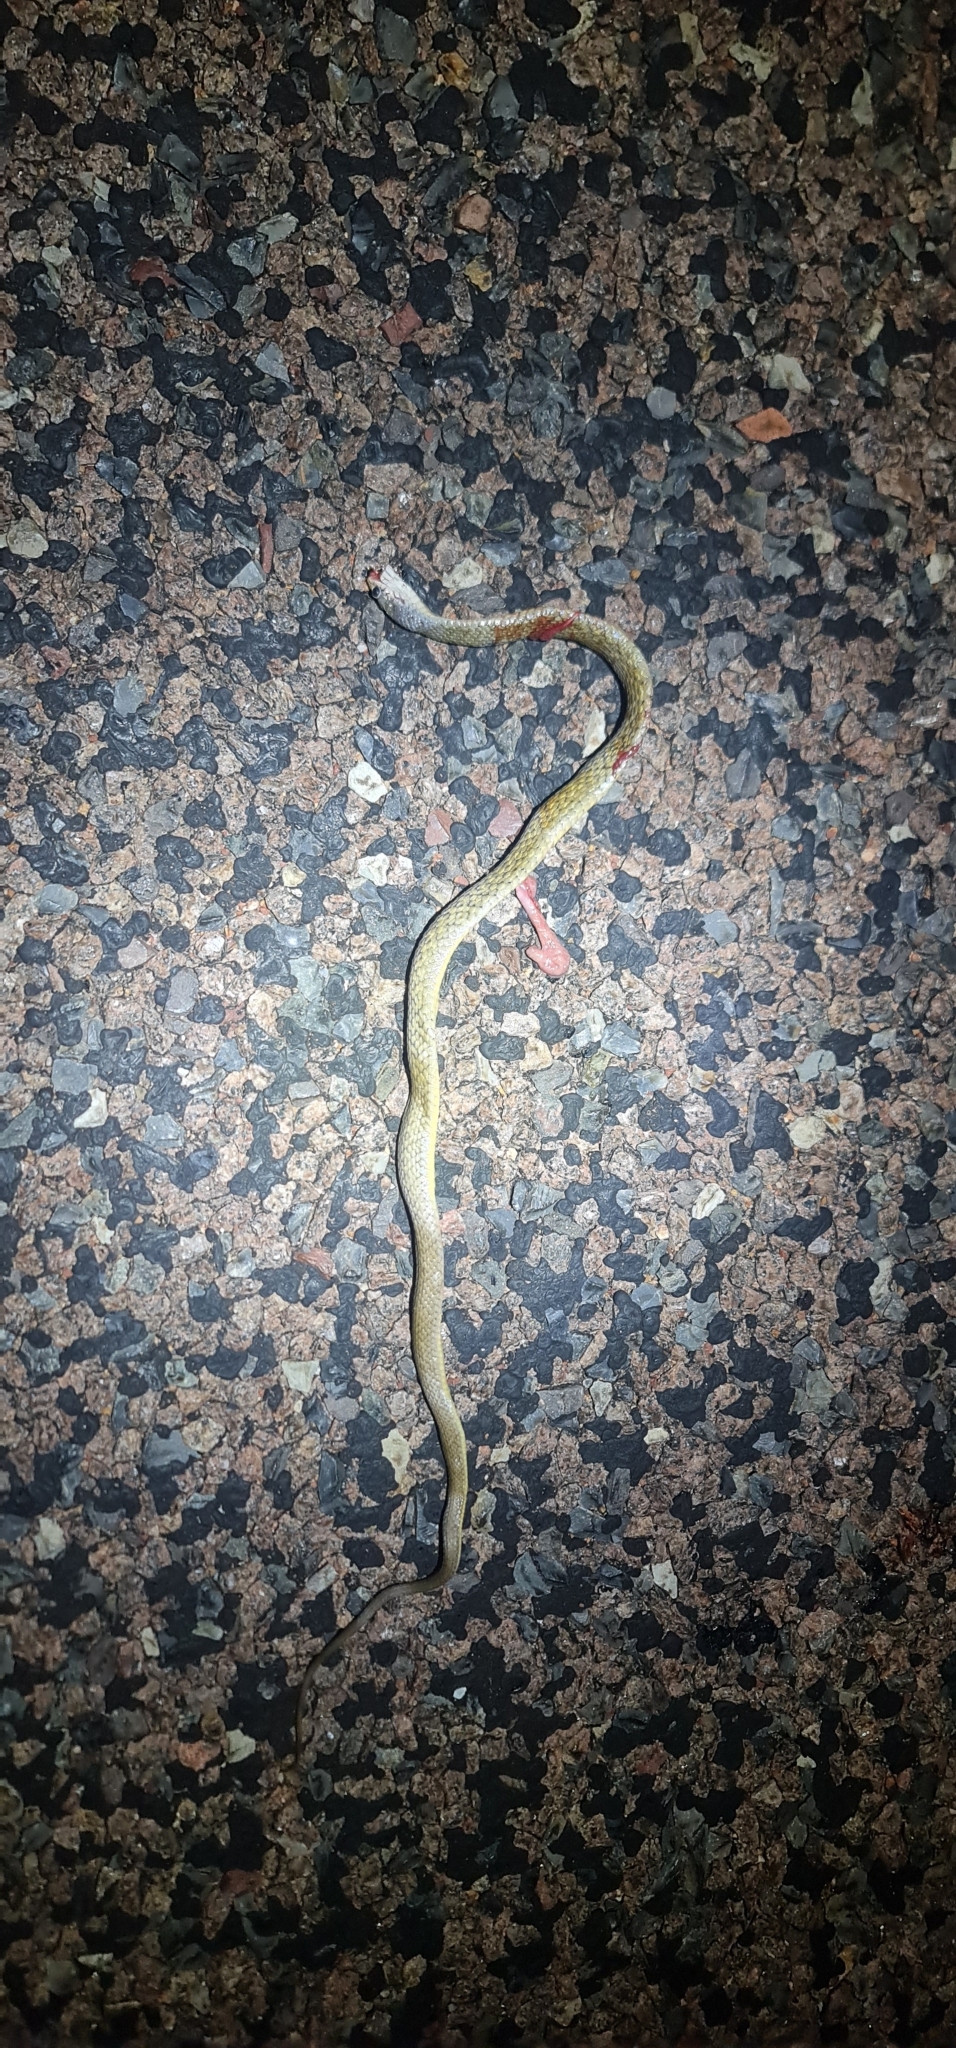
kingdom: Animalia
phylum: Chordata
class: Squamata
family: Colubridae
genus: Tropidonophis
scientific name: Tropidonophis mairii
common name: Common keelback
